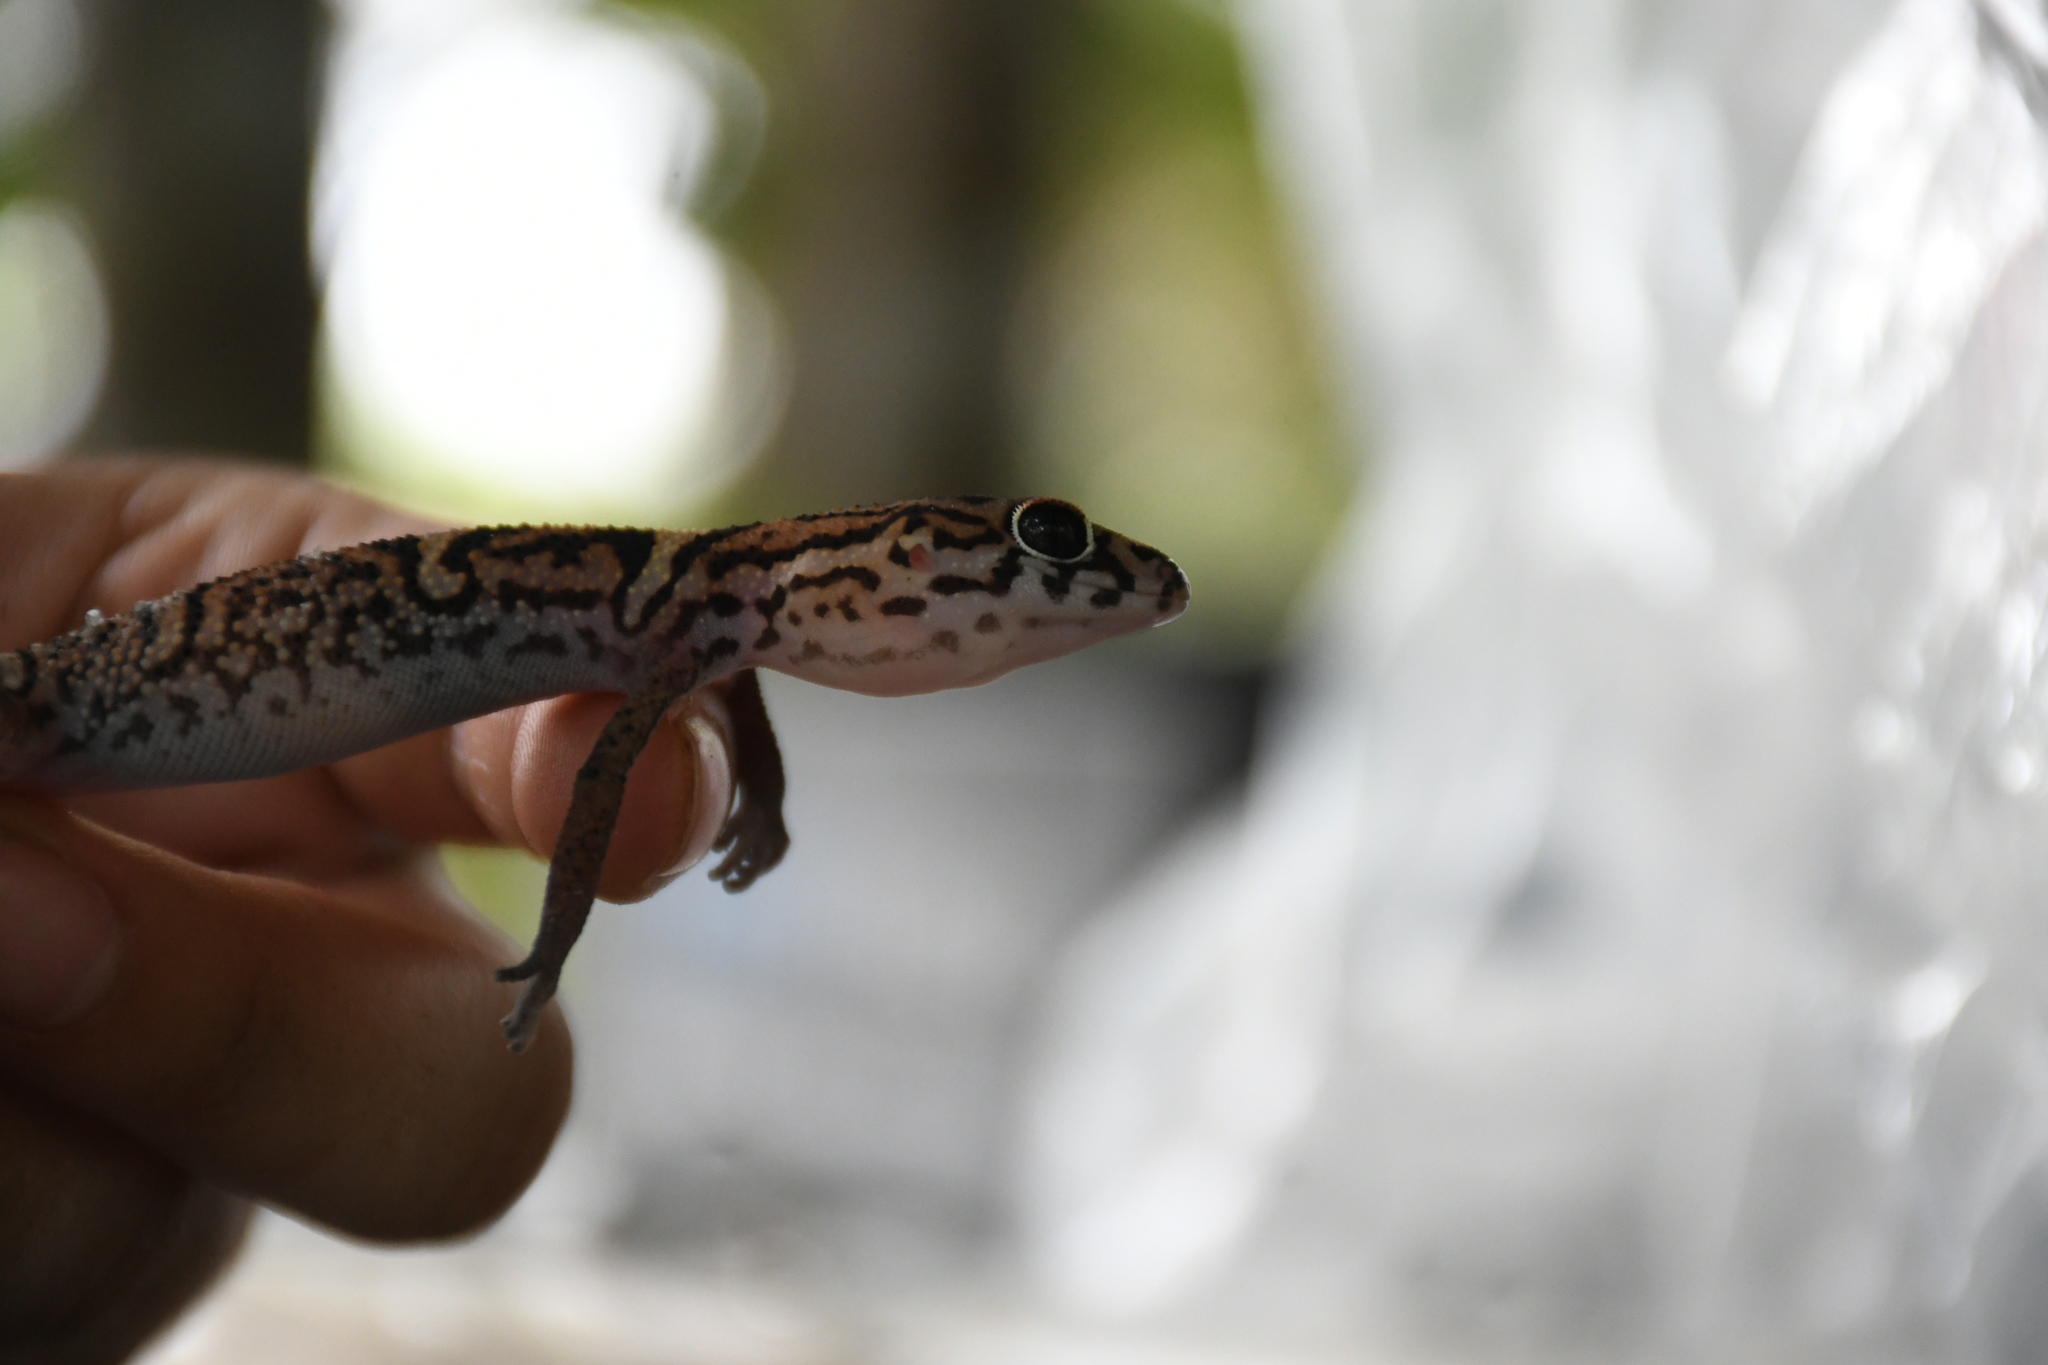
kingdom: Animalia
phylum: Chordata
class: Squamata
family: Eublepharidae
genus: Coleonyx
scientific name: Coleonyx elegans
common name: Yucatan banded gecko
